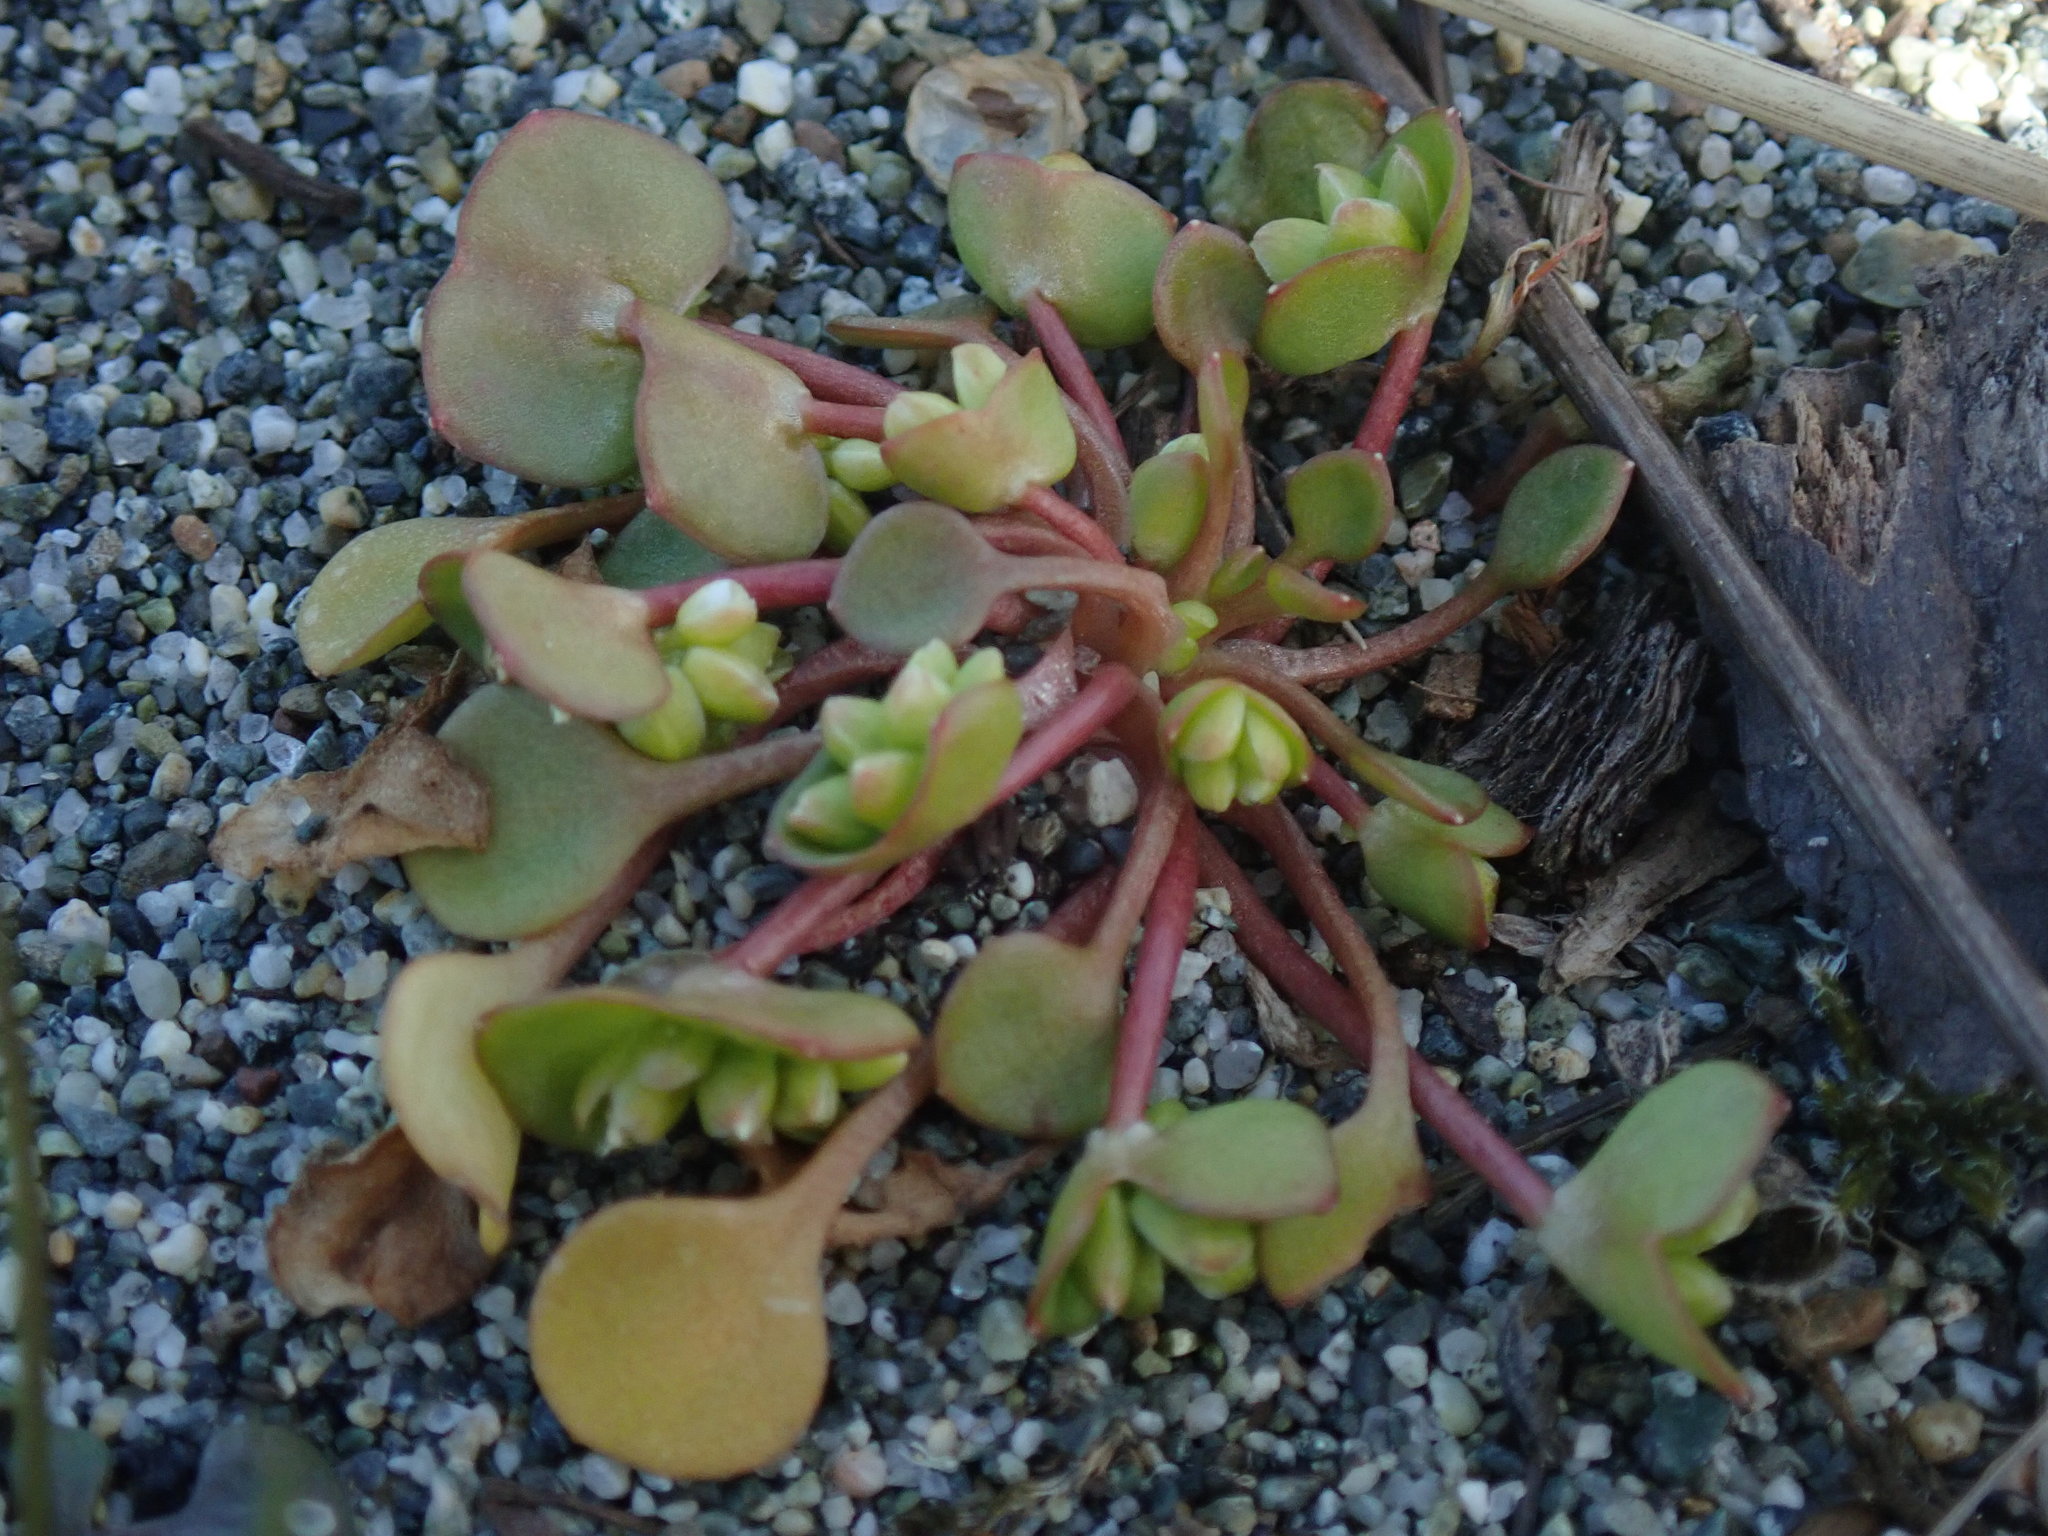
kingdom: Plantae
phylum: Tracheophyta
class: Magnoliopsida
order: Caryophyllales
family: Montiaceae
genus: Claytonia
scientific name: Claytonia rubra
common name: Erubescent miner's-lettuce
